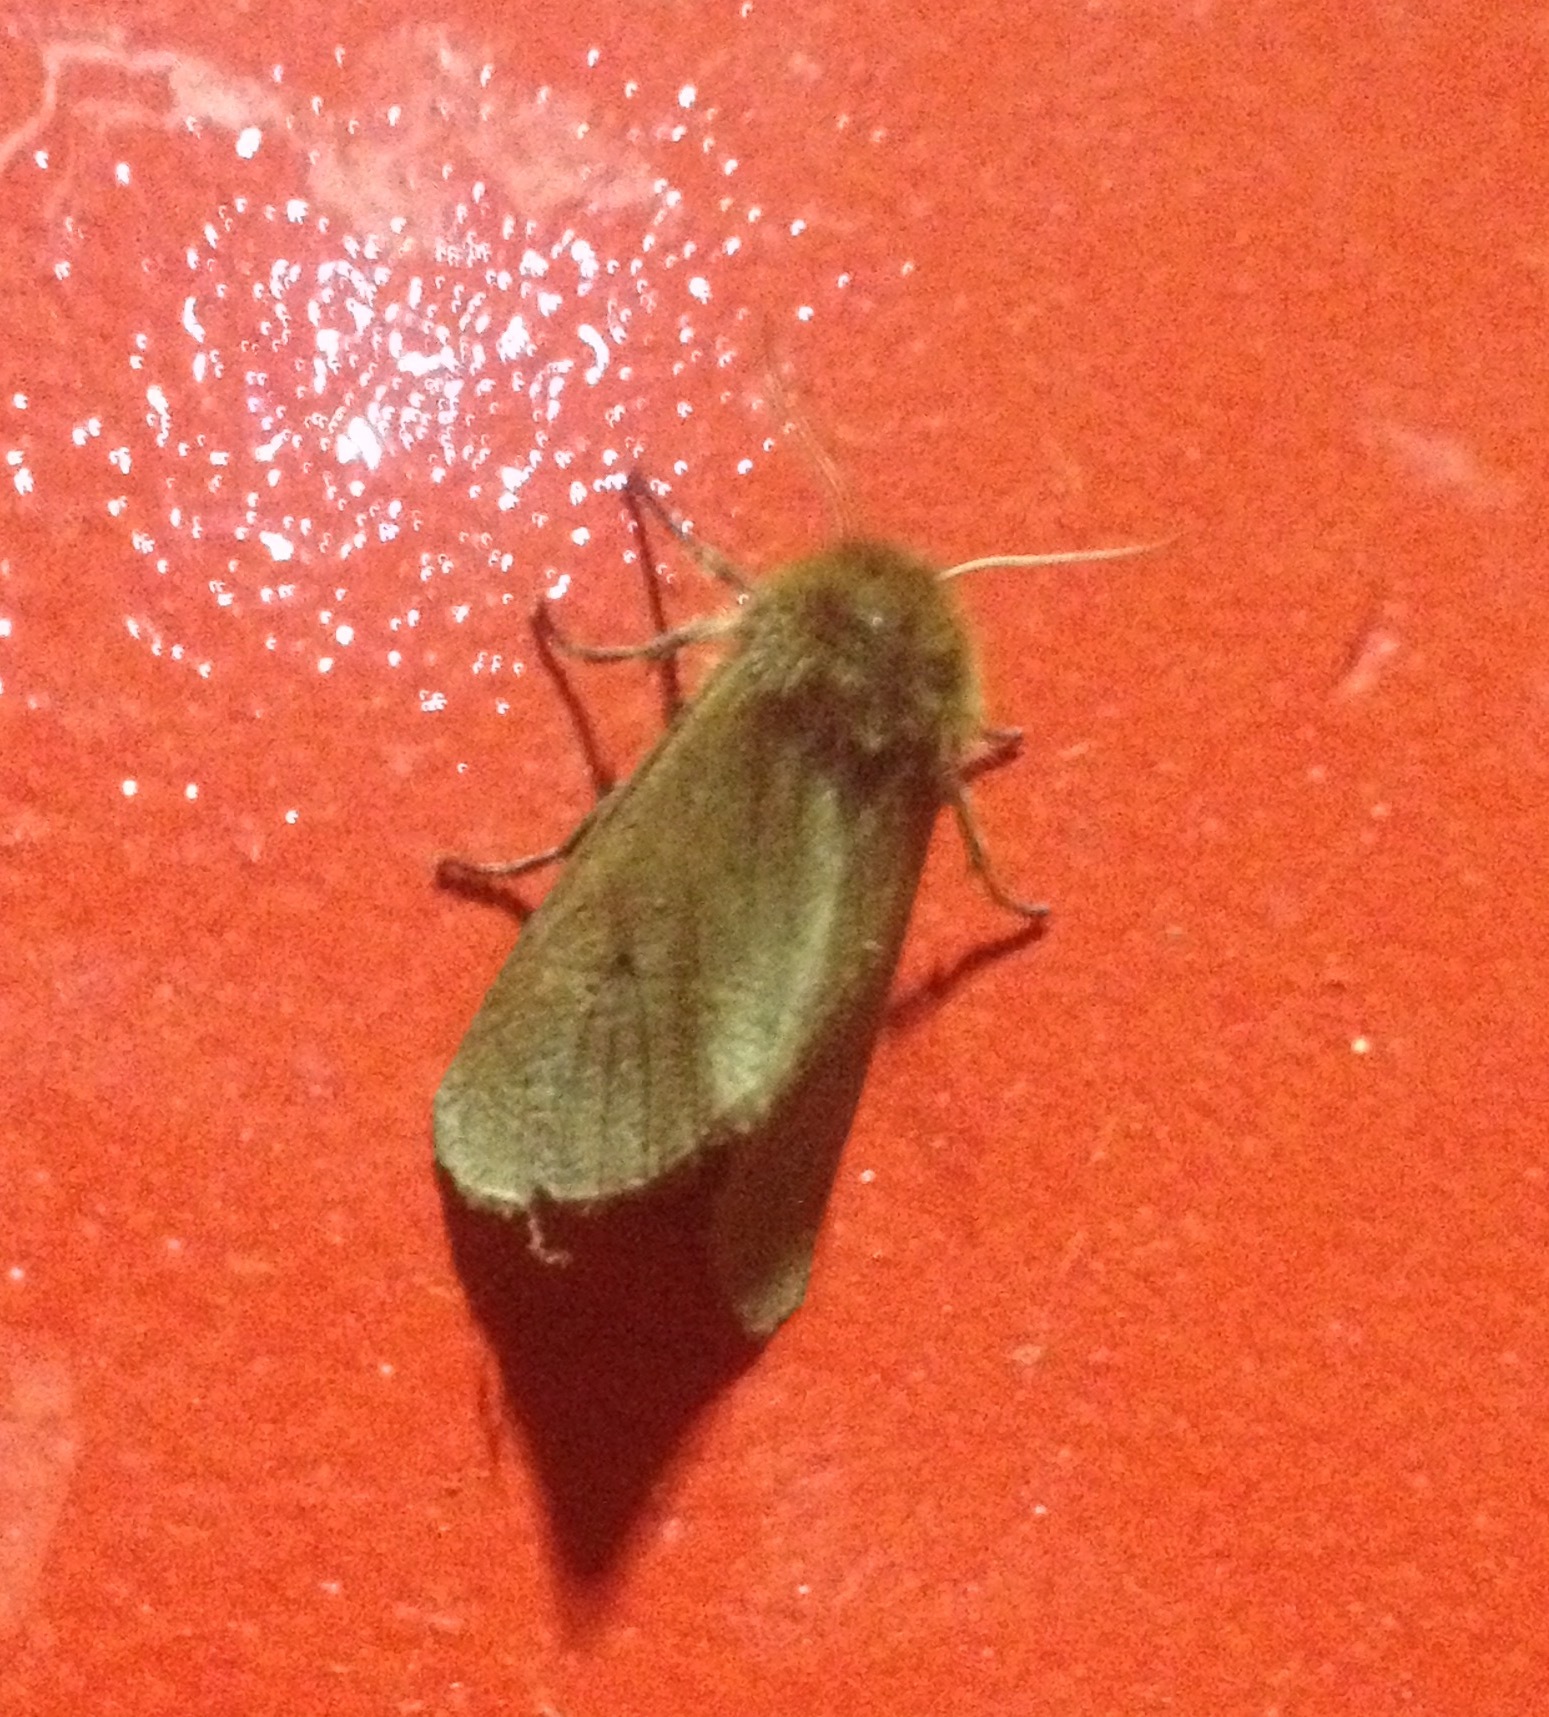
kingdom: Animalia
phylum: Arthropoda
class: Insecta
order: Lepidoptera
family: Erebidae
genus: Phragmatobia
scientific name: Phragmatobia fuliginosa
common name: Ruby tiger
